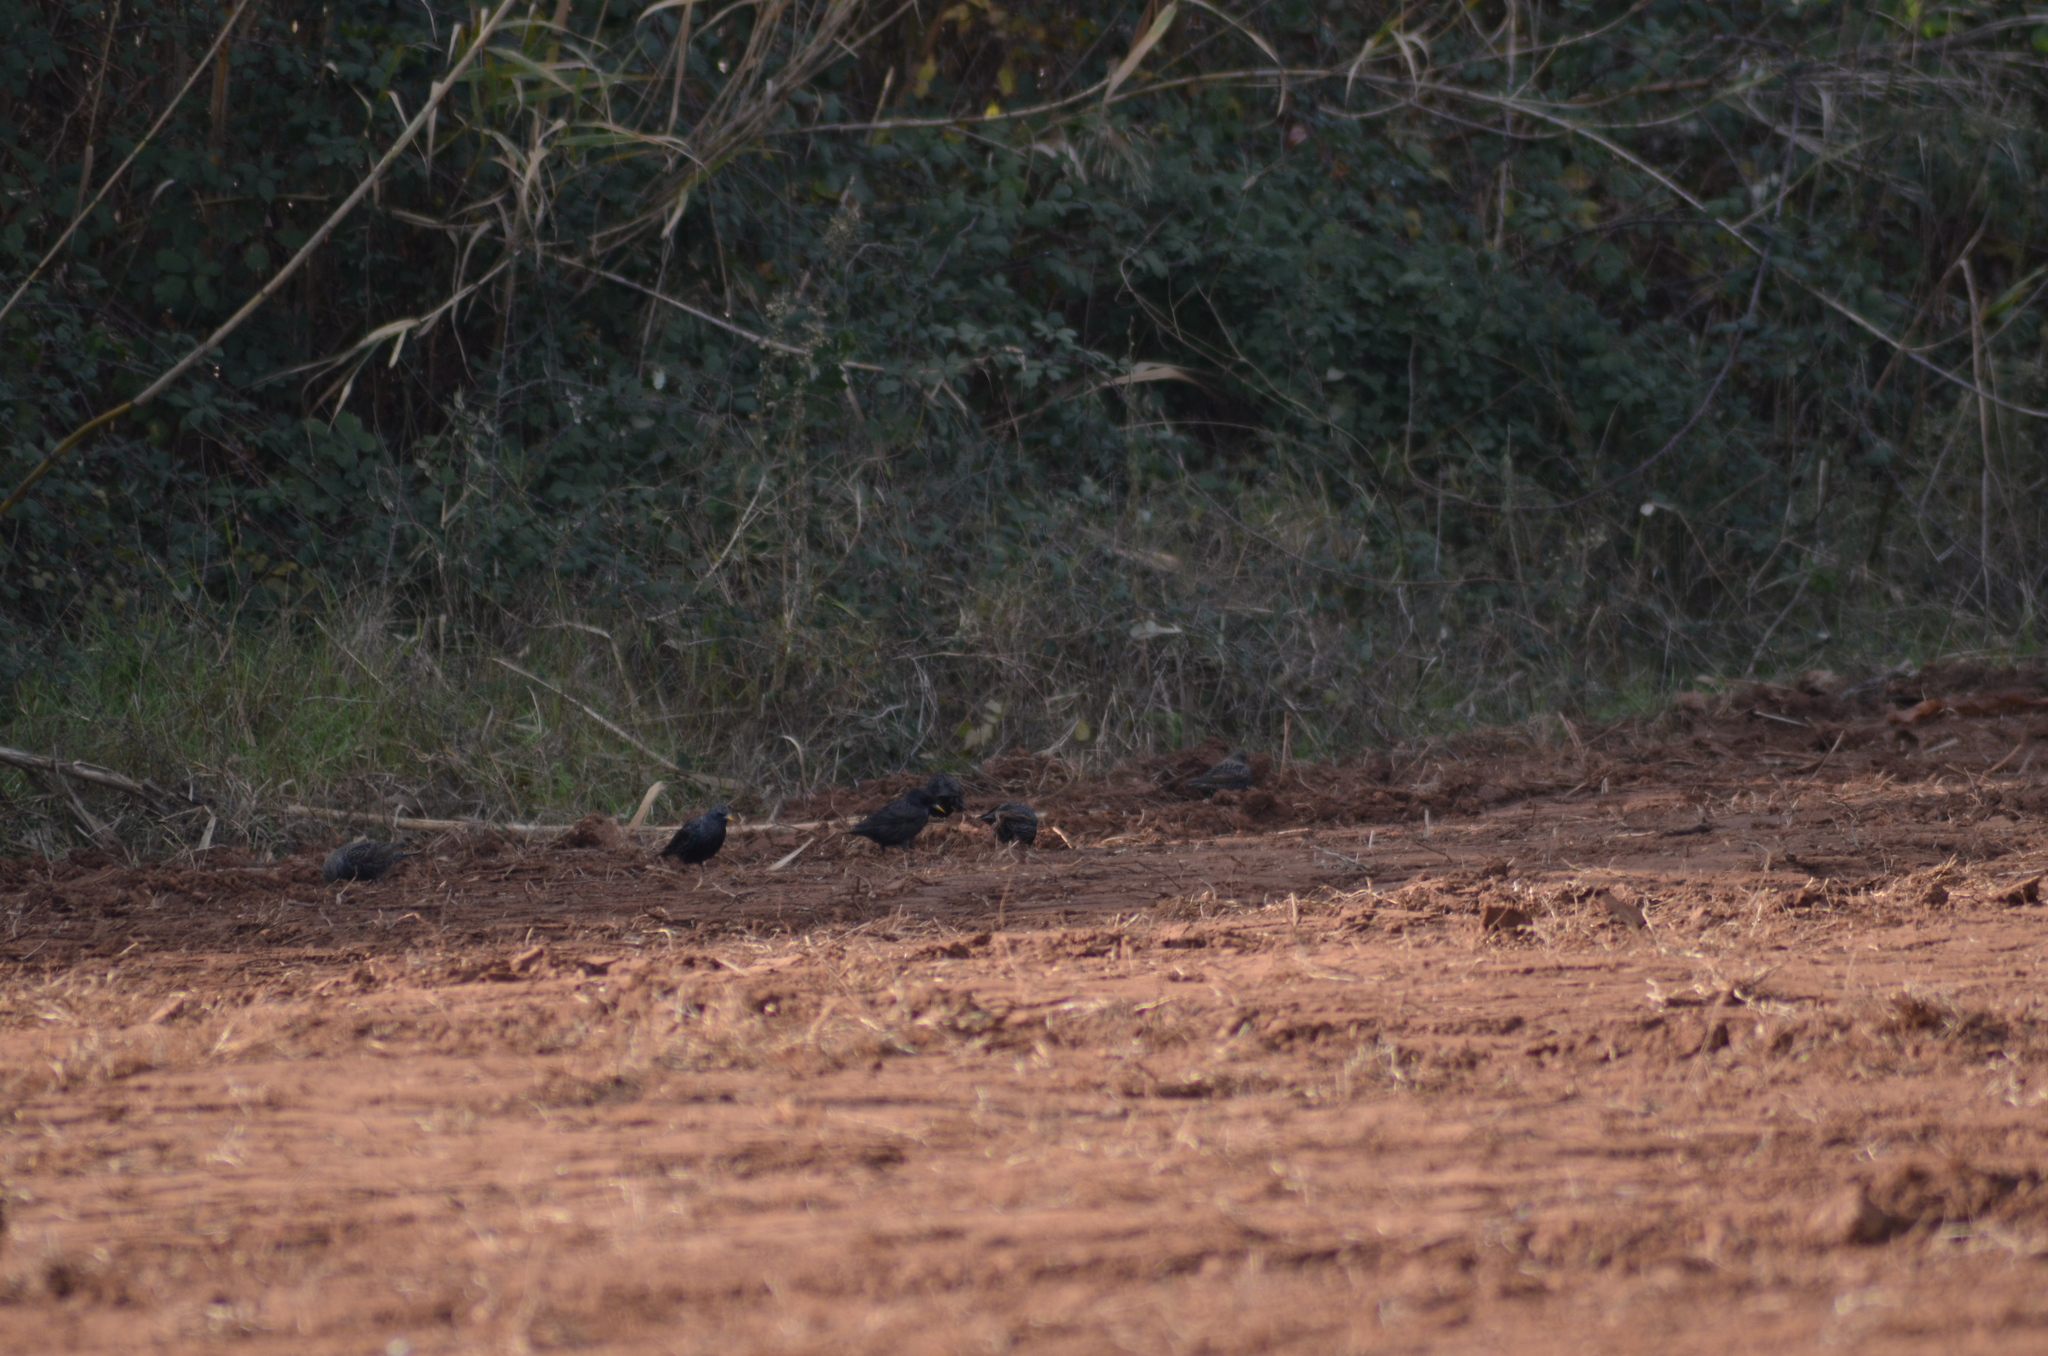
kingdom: Animalia
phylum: Chordata
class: Aves
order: Passeriformes
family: Sturnidae
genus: Sturnus
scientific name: Sturnus vulgaris
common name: Common starling
